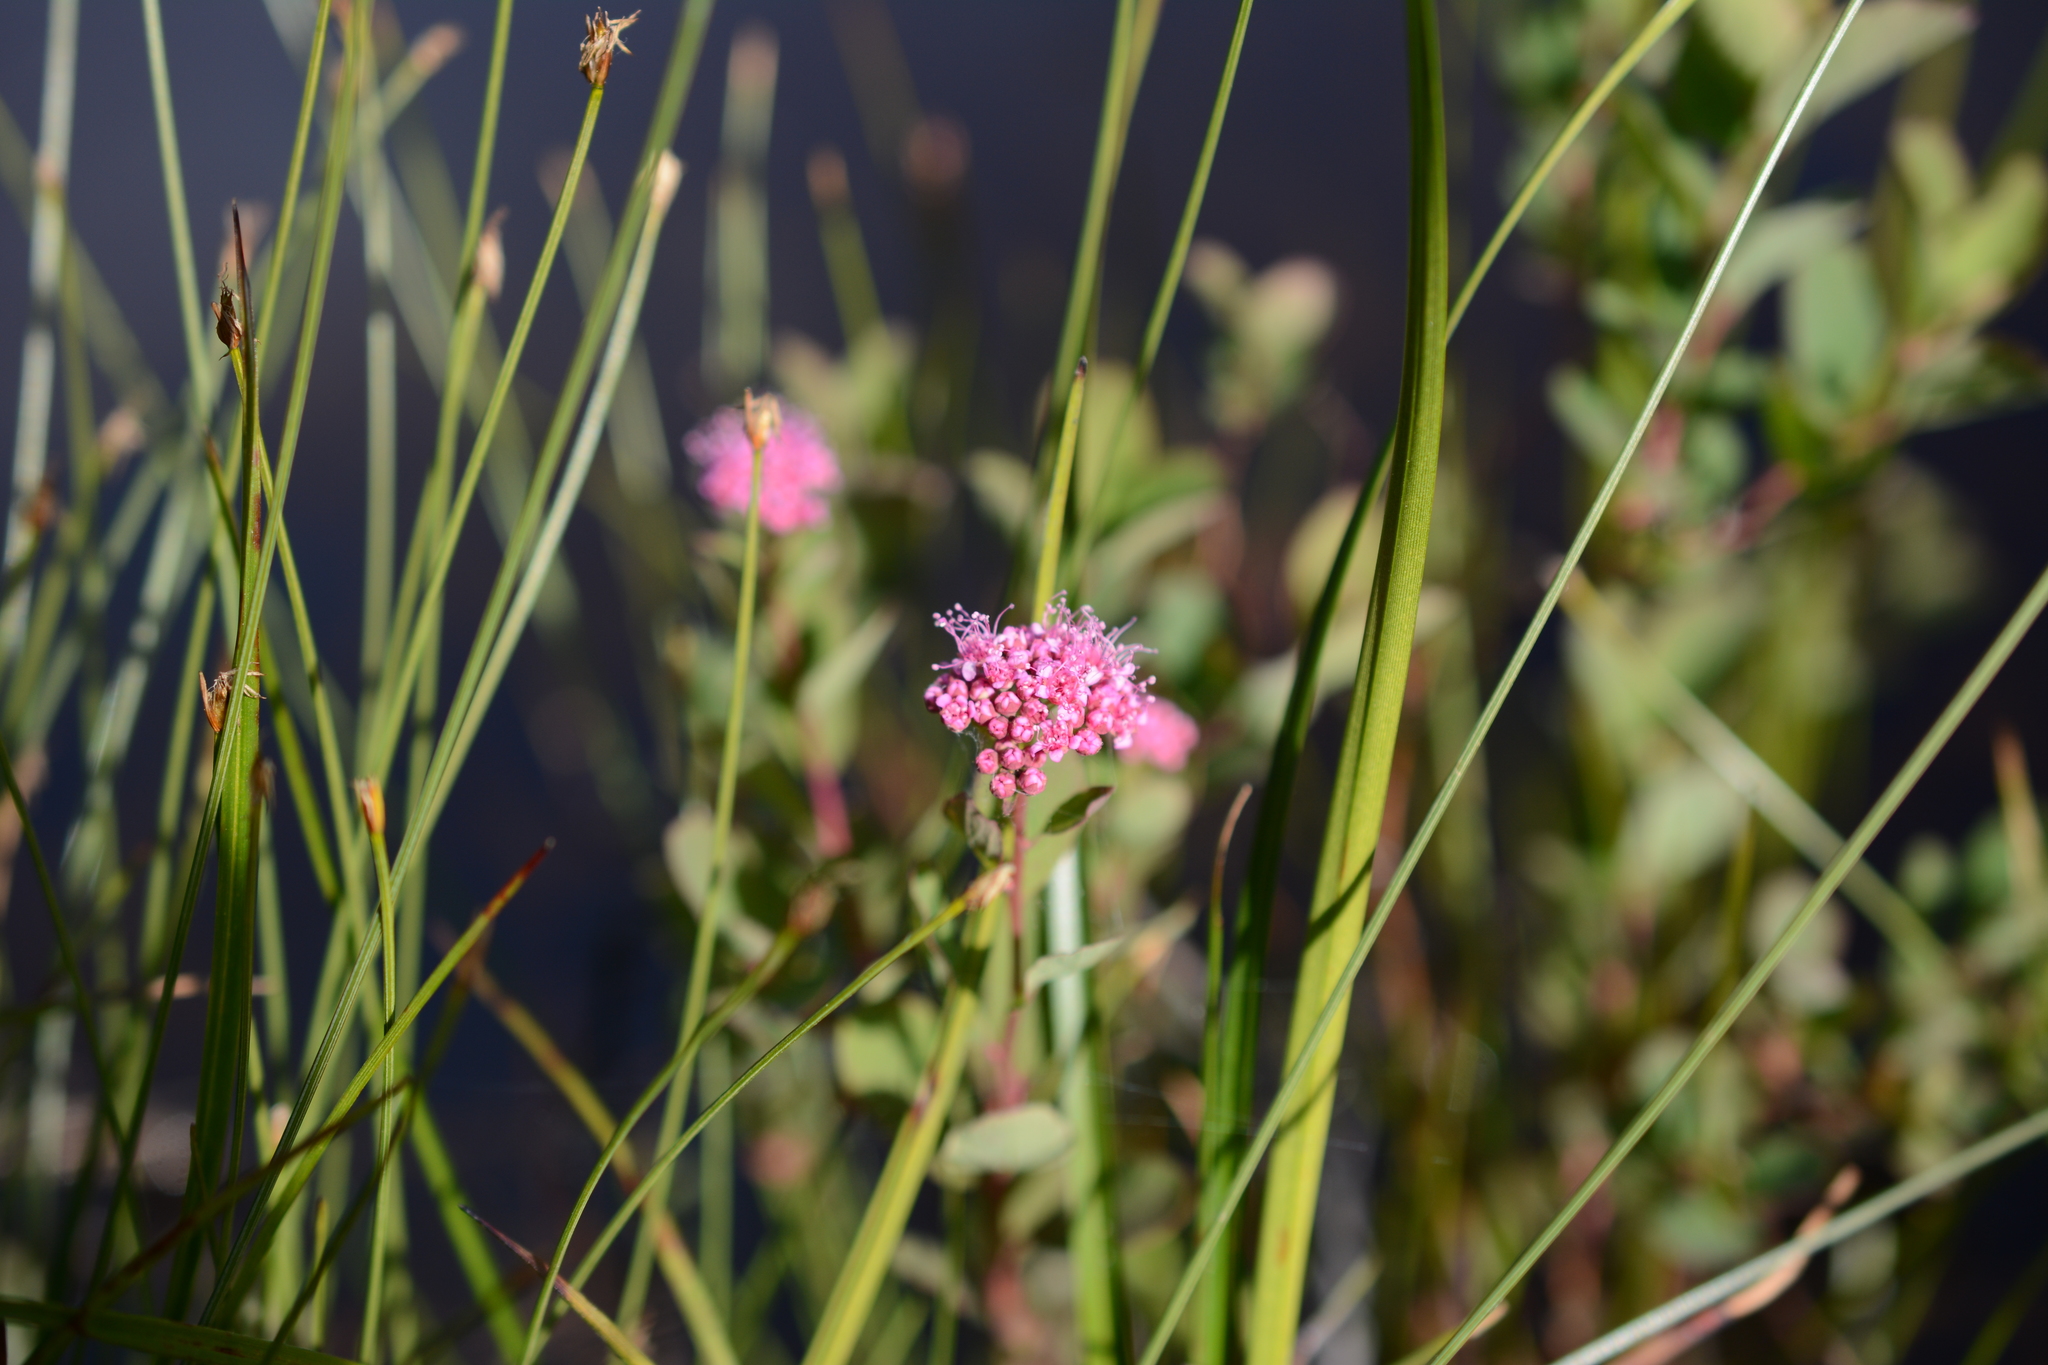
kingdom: Plantae
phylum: Tracheophyta
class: Magnoliopsida
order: Rosales
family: Rosaceae
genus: Spiraea
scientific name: Spiraea splendens
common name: Subalpine meadowsweet
